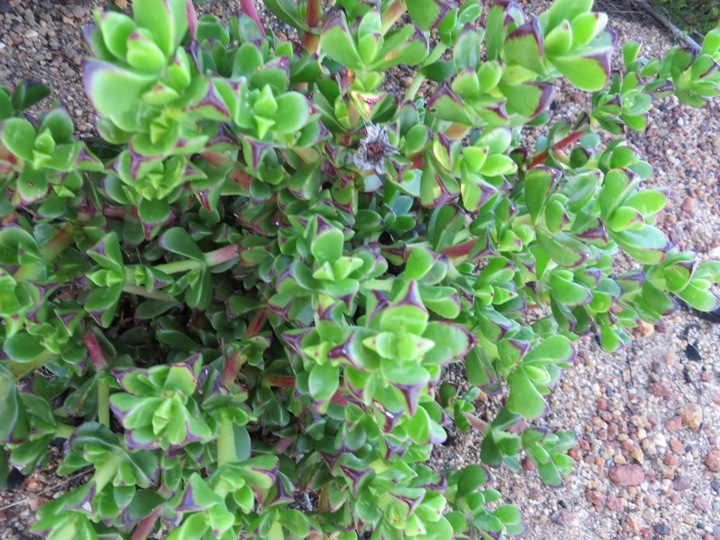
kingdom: Plantae
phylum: Tracheophyta
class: Magnoliopsida
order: Caryophyllales
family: Aizoaceae
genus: Erepsia
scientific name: Erepsia inclaudens
